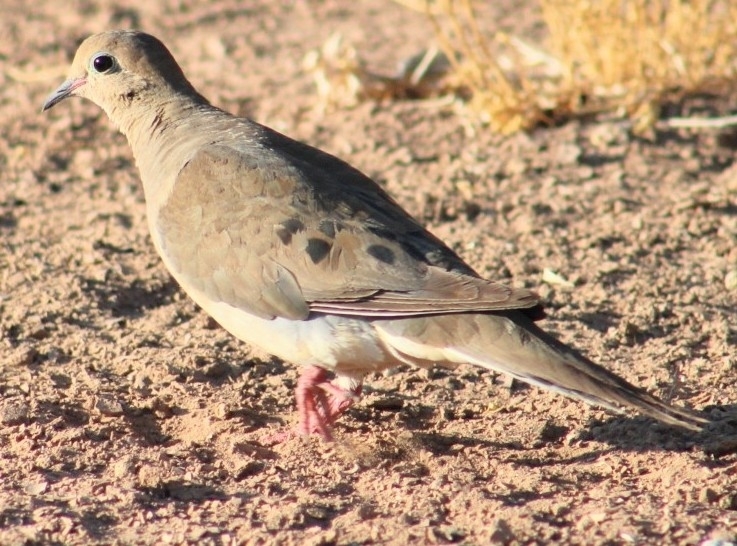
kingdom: Animalia
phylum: Chordata
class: Aves
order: Columbiformes
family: Columbidae
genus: Zenaida
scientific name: Zenaida macroura
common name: Mourning dove
